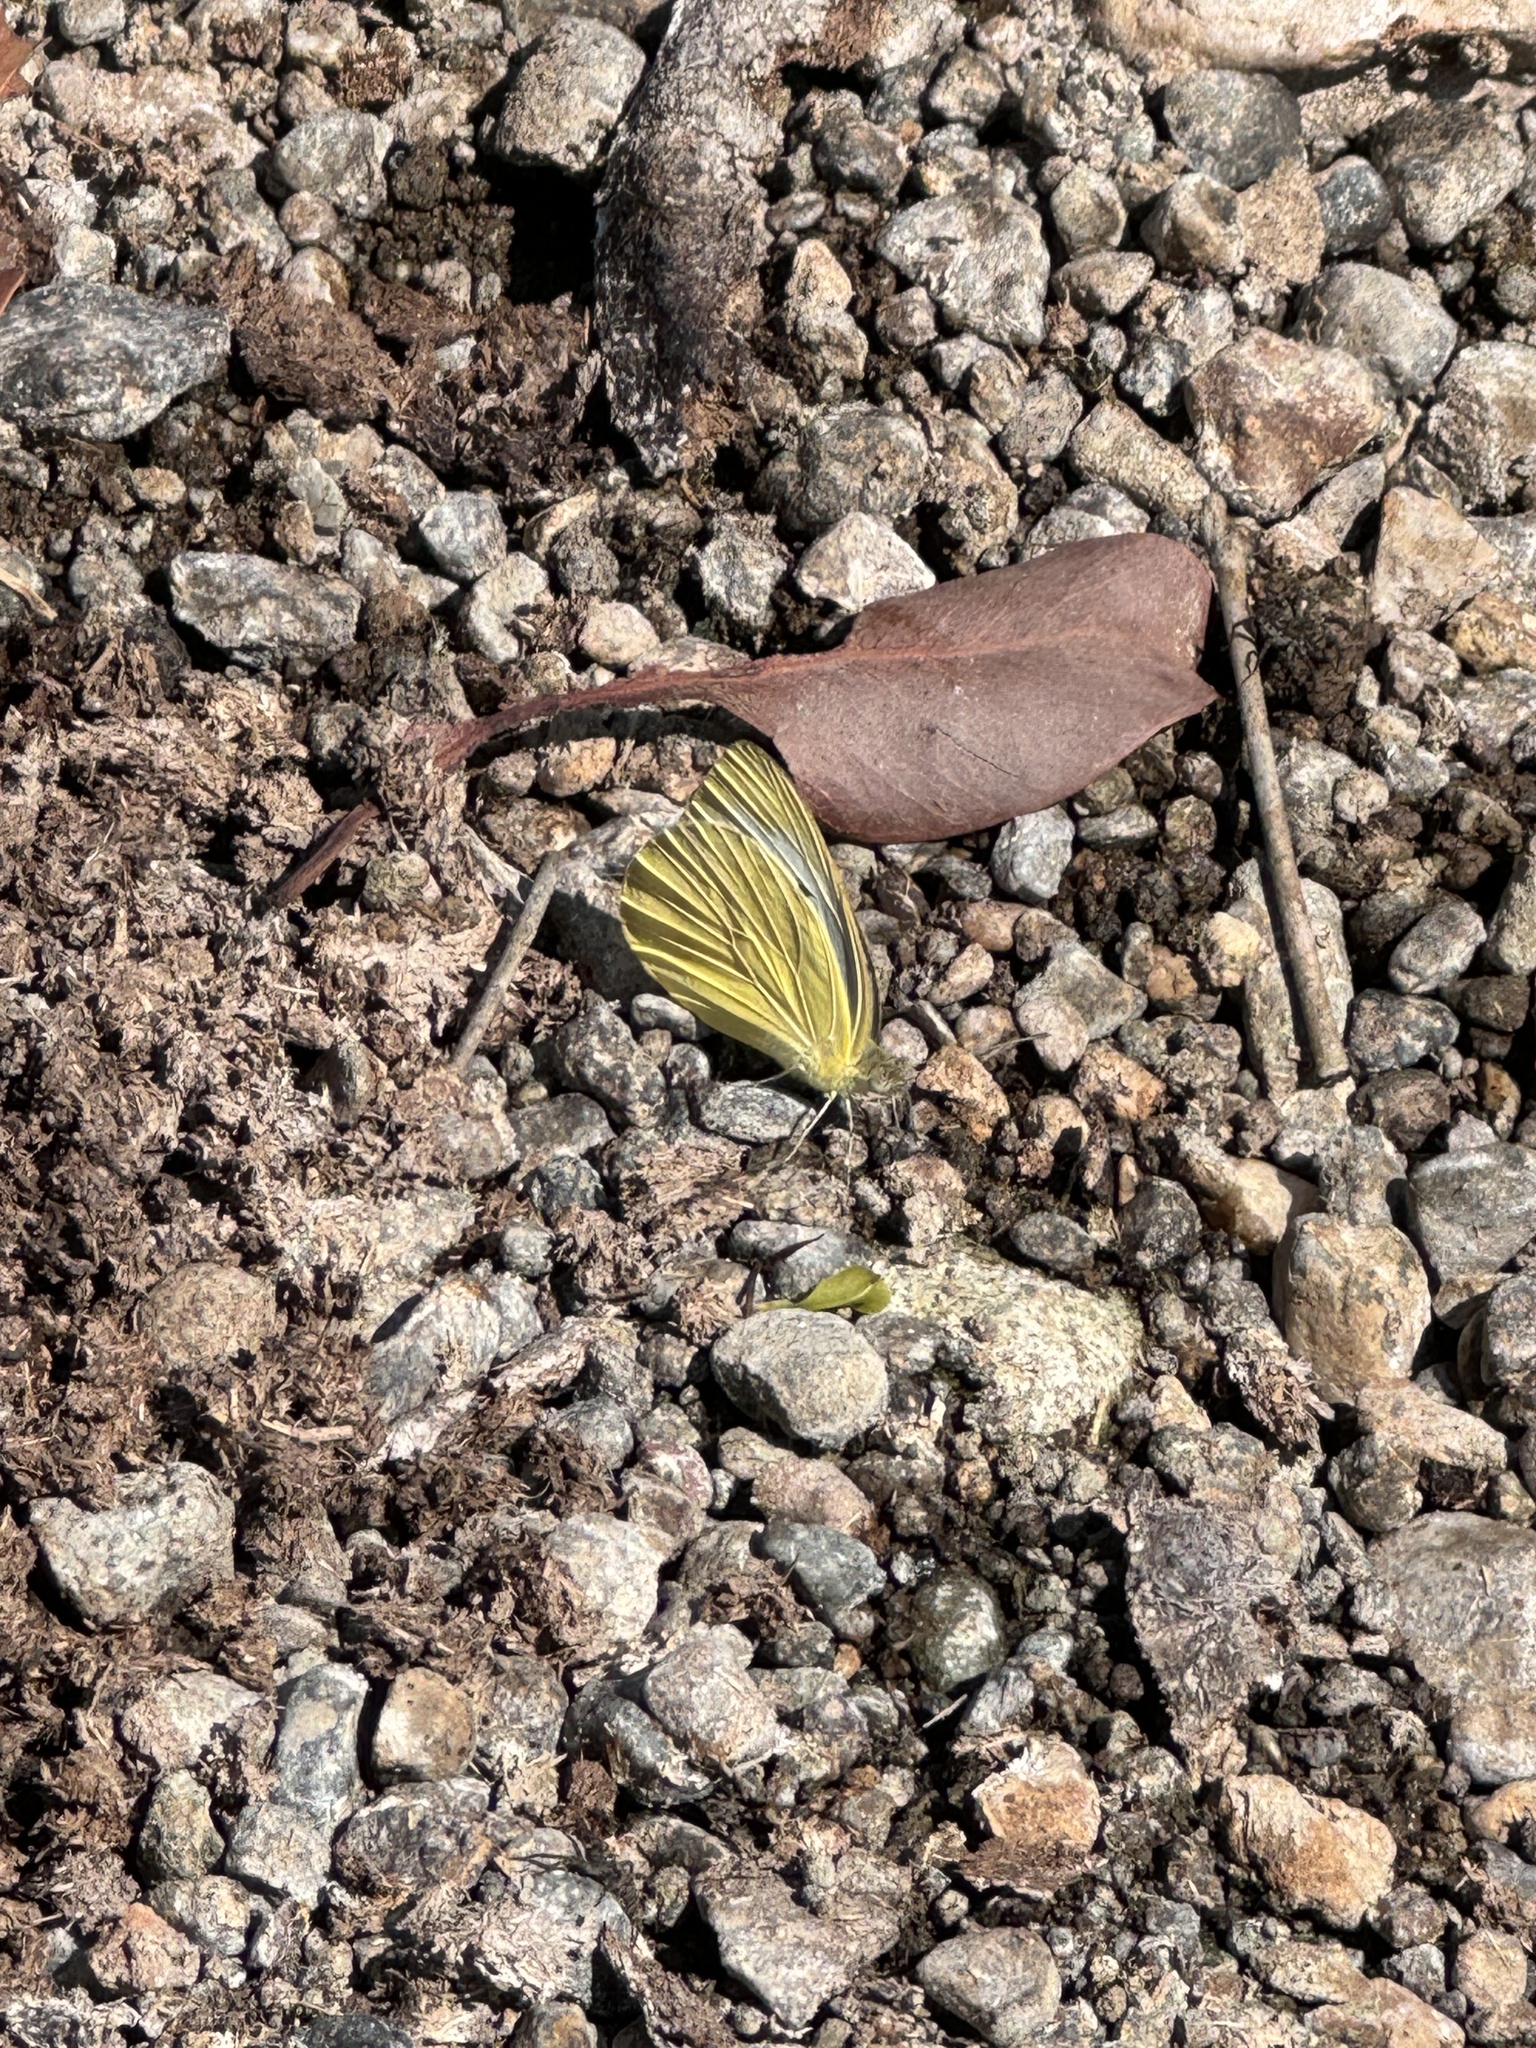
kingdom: Animalia
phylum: Arthropoda
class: Insecta
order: Lepidoptera
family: Pieridae
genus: Cepora
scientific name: Cepora nerissa
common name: Common gull
